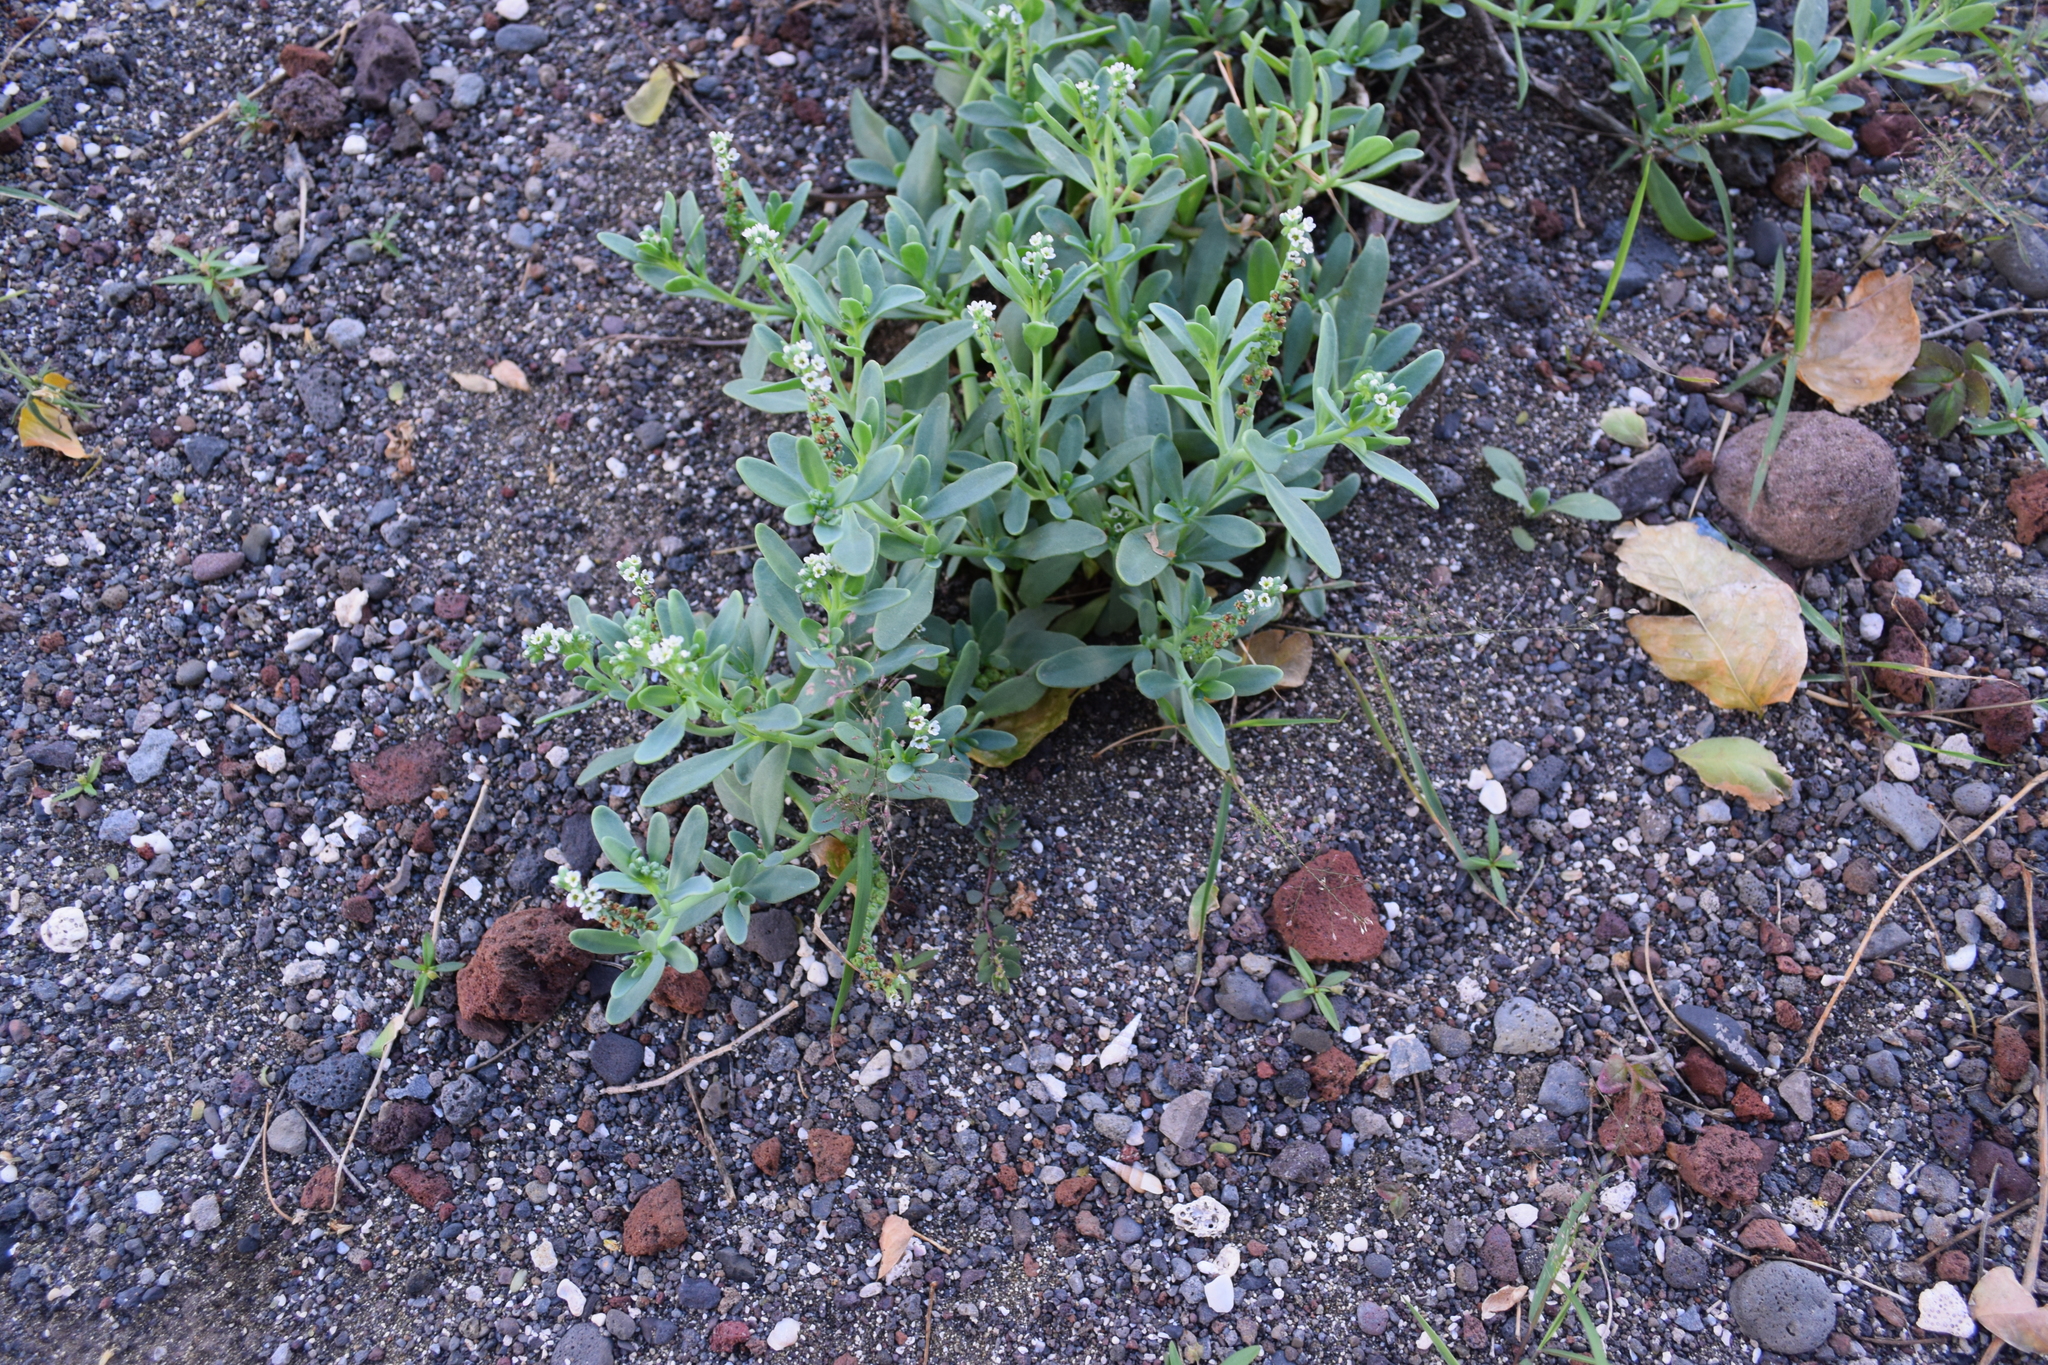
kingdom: Plantae
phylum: Tracheophyta
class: Magnoliopsida
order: Boraginales
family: Heliotropiaceae
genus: Heliotropium
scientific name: Heliotropium curassavicum
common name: Seaside heliotrope
